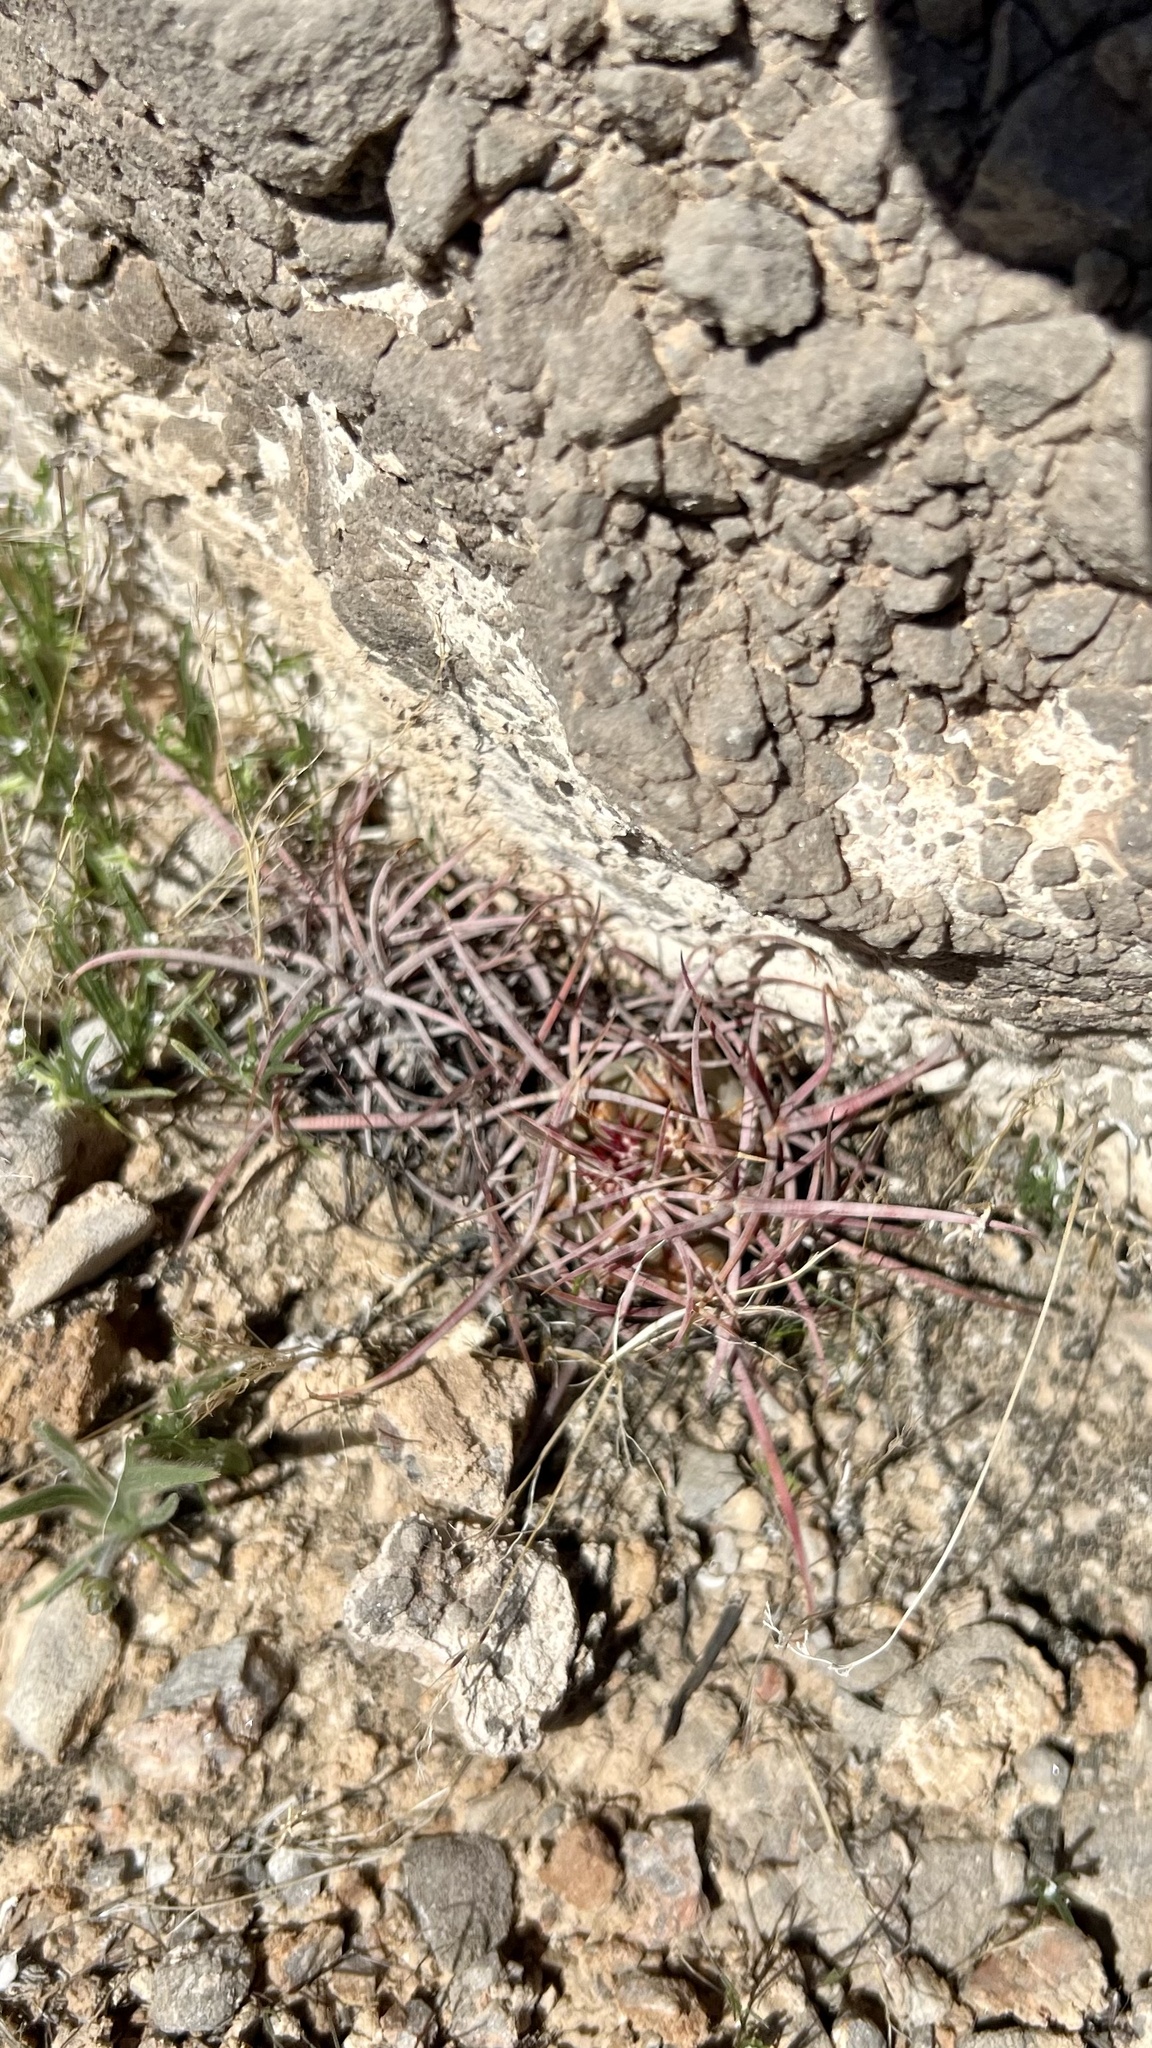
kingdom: Plantae
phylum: Tracheophyta
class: Magnoliopsida
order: Caryophyllales
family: Cactaceae
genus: Ferocactus
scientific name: Ferocactus cylindraceus
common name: California barrel cactus
